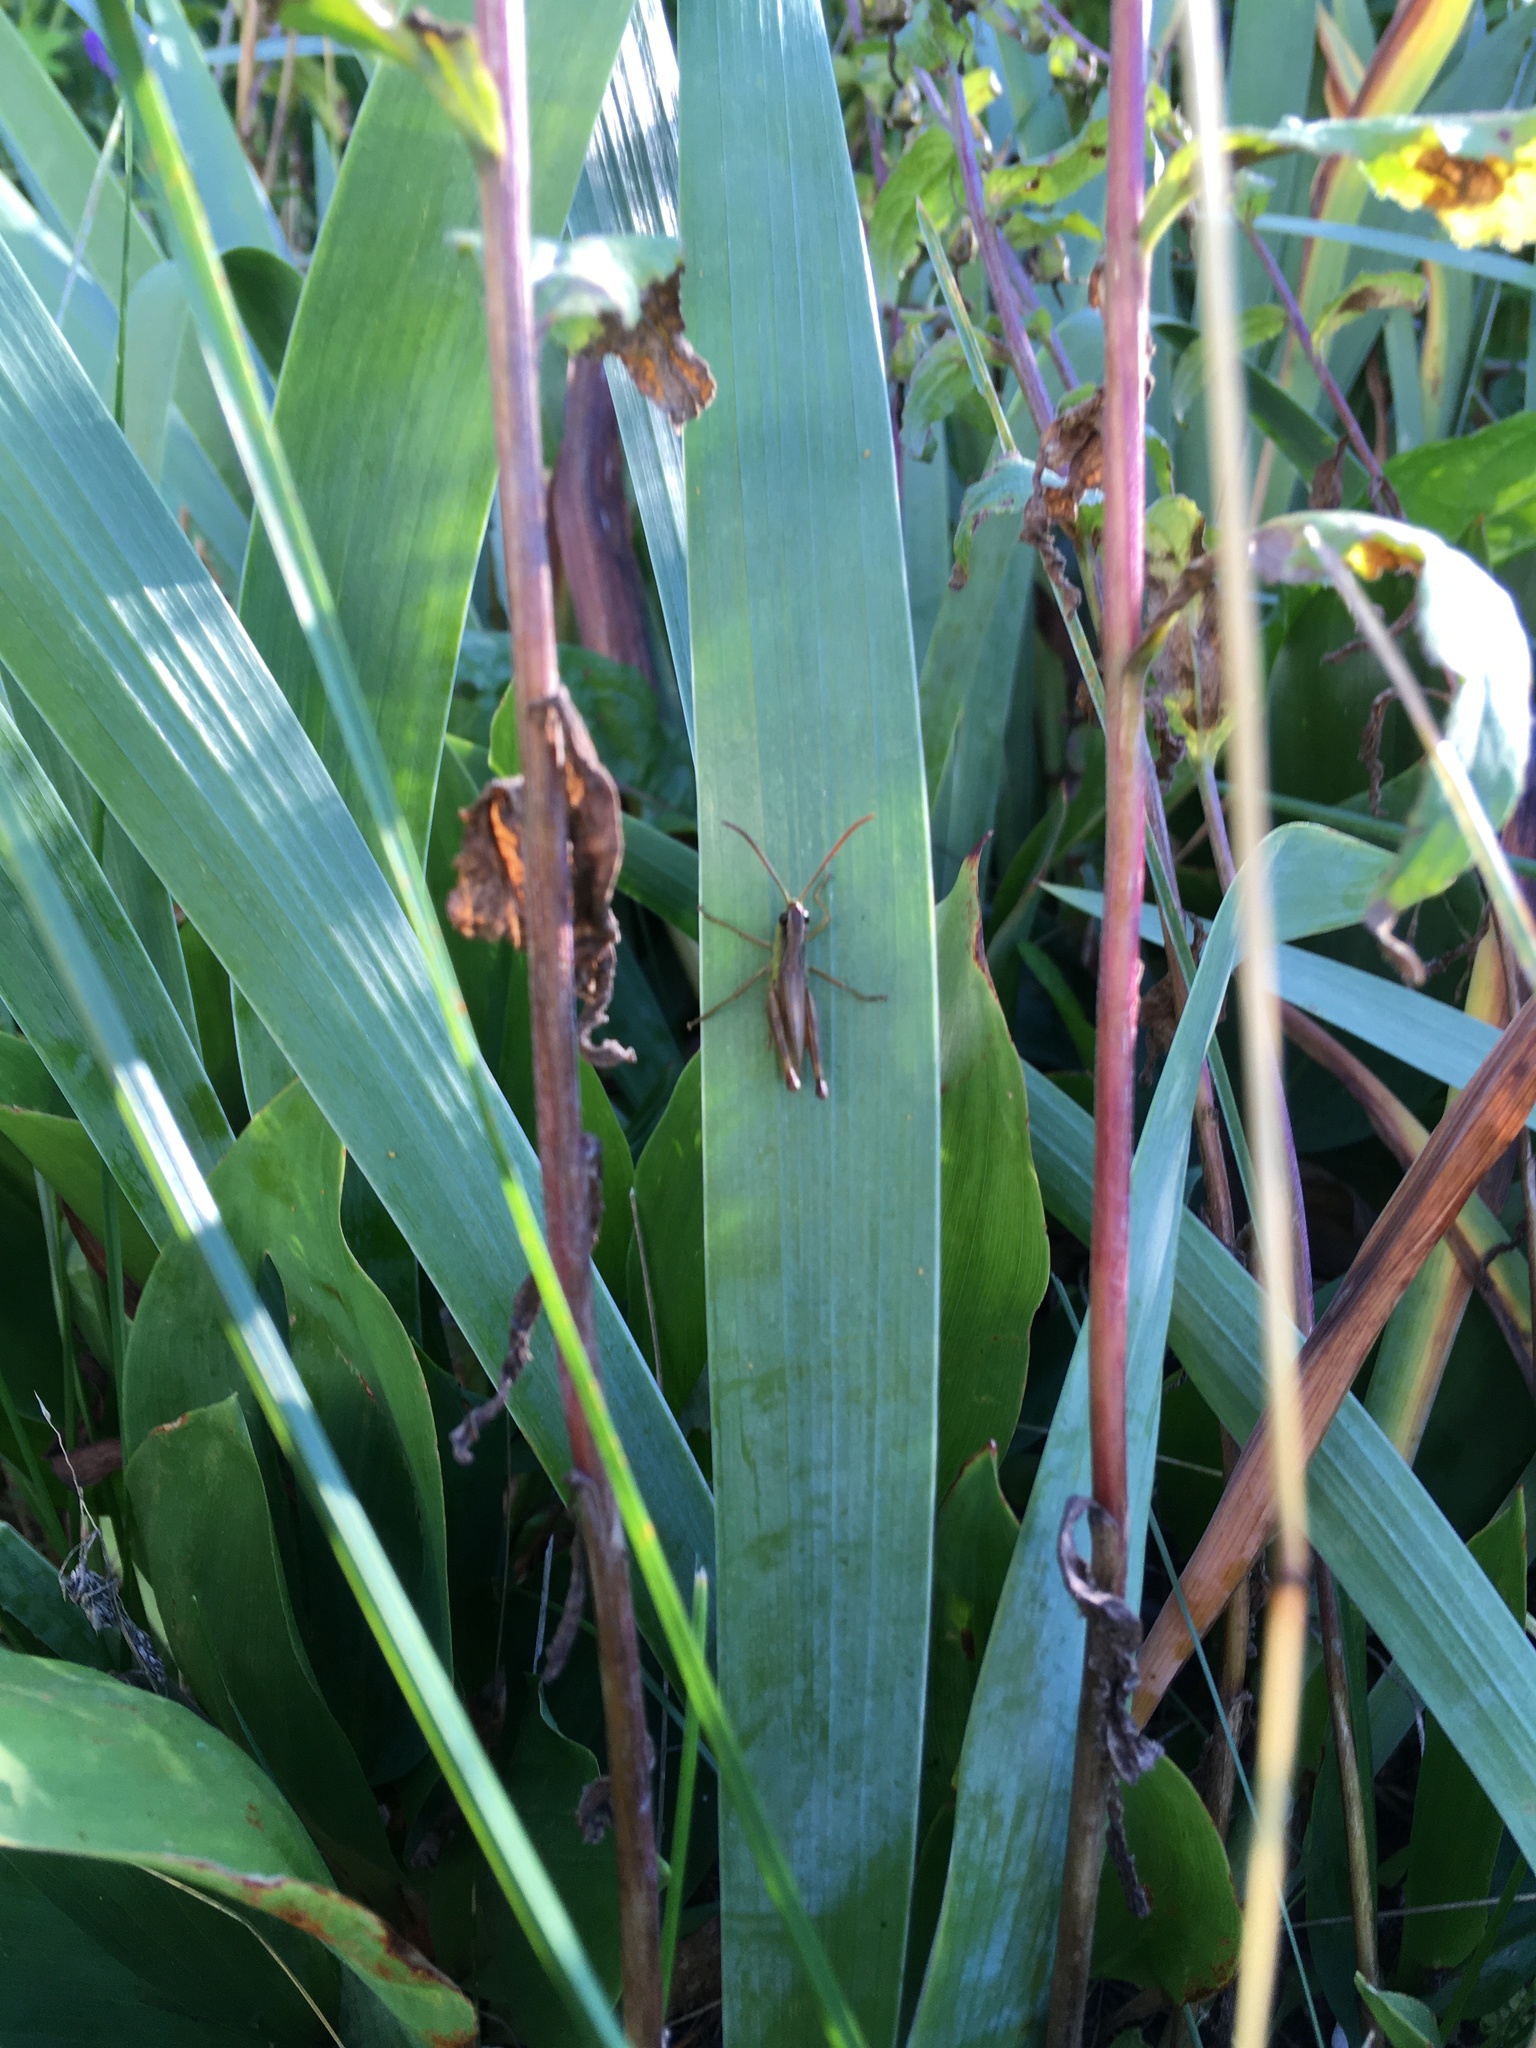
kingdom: Animalia
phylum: Arthropoda
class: Insecta
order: Orthoptera
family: Acrididae
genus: Pseudochorthippus
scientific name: Pseudochorthippus montanus
